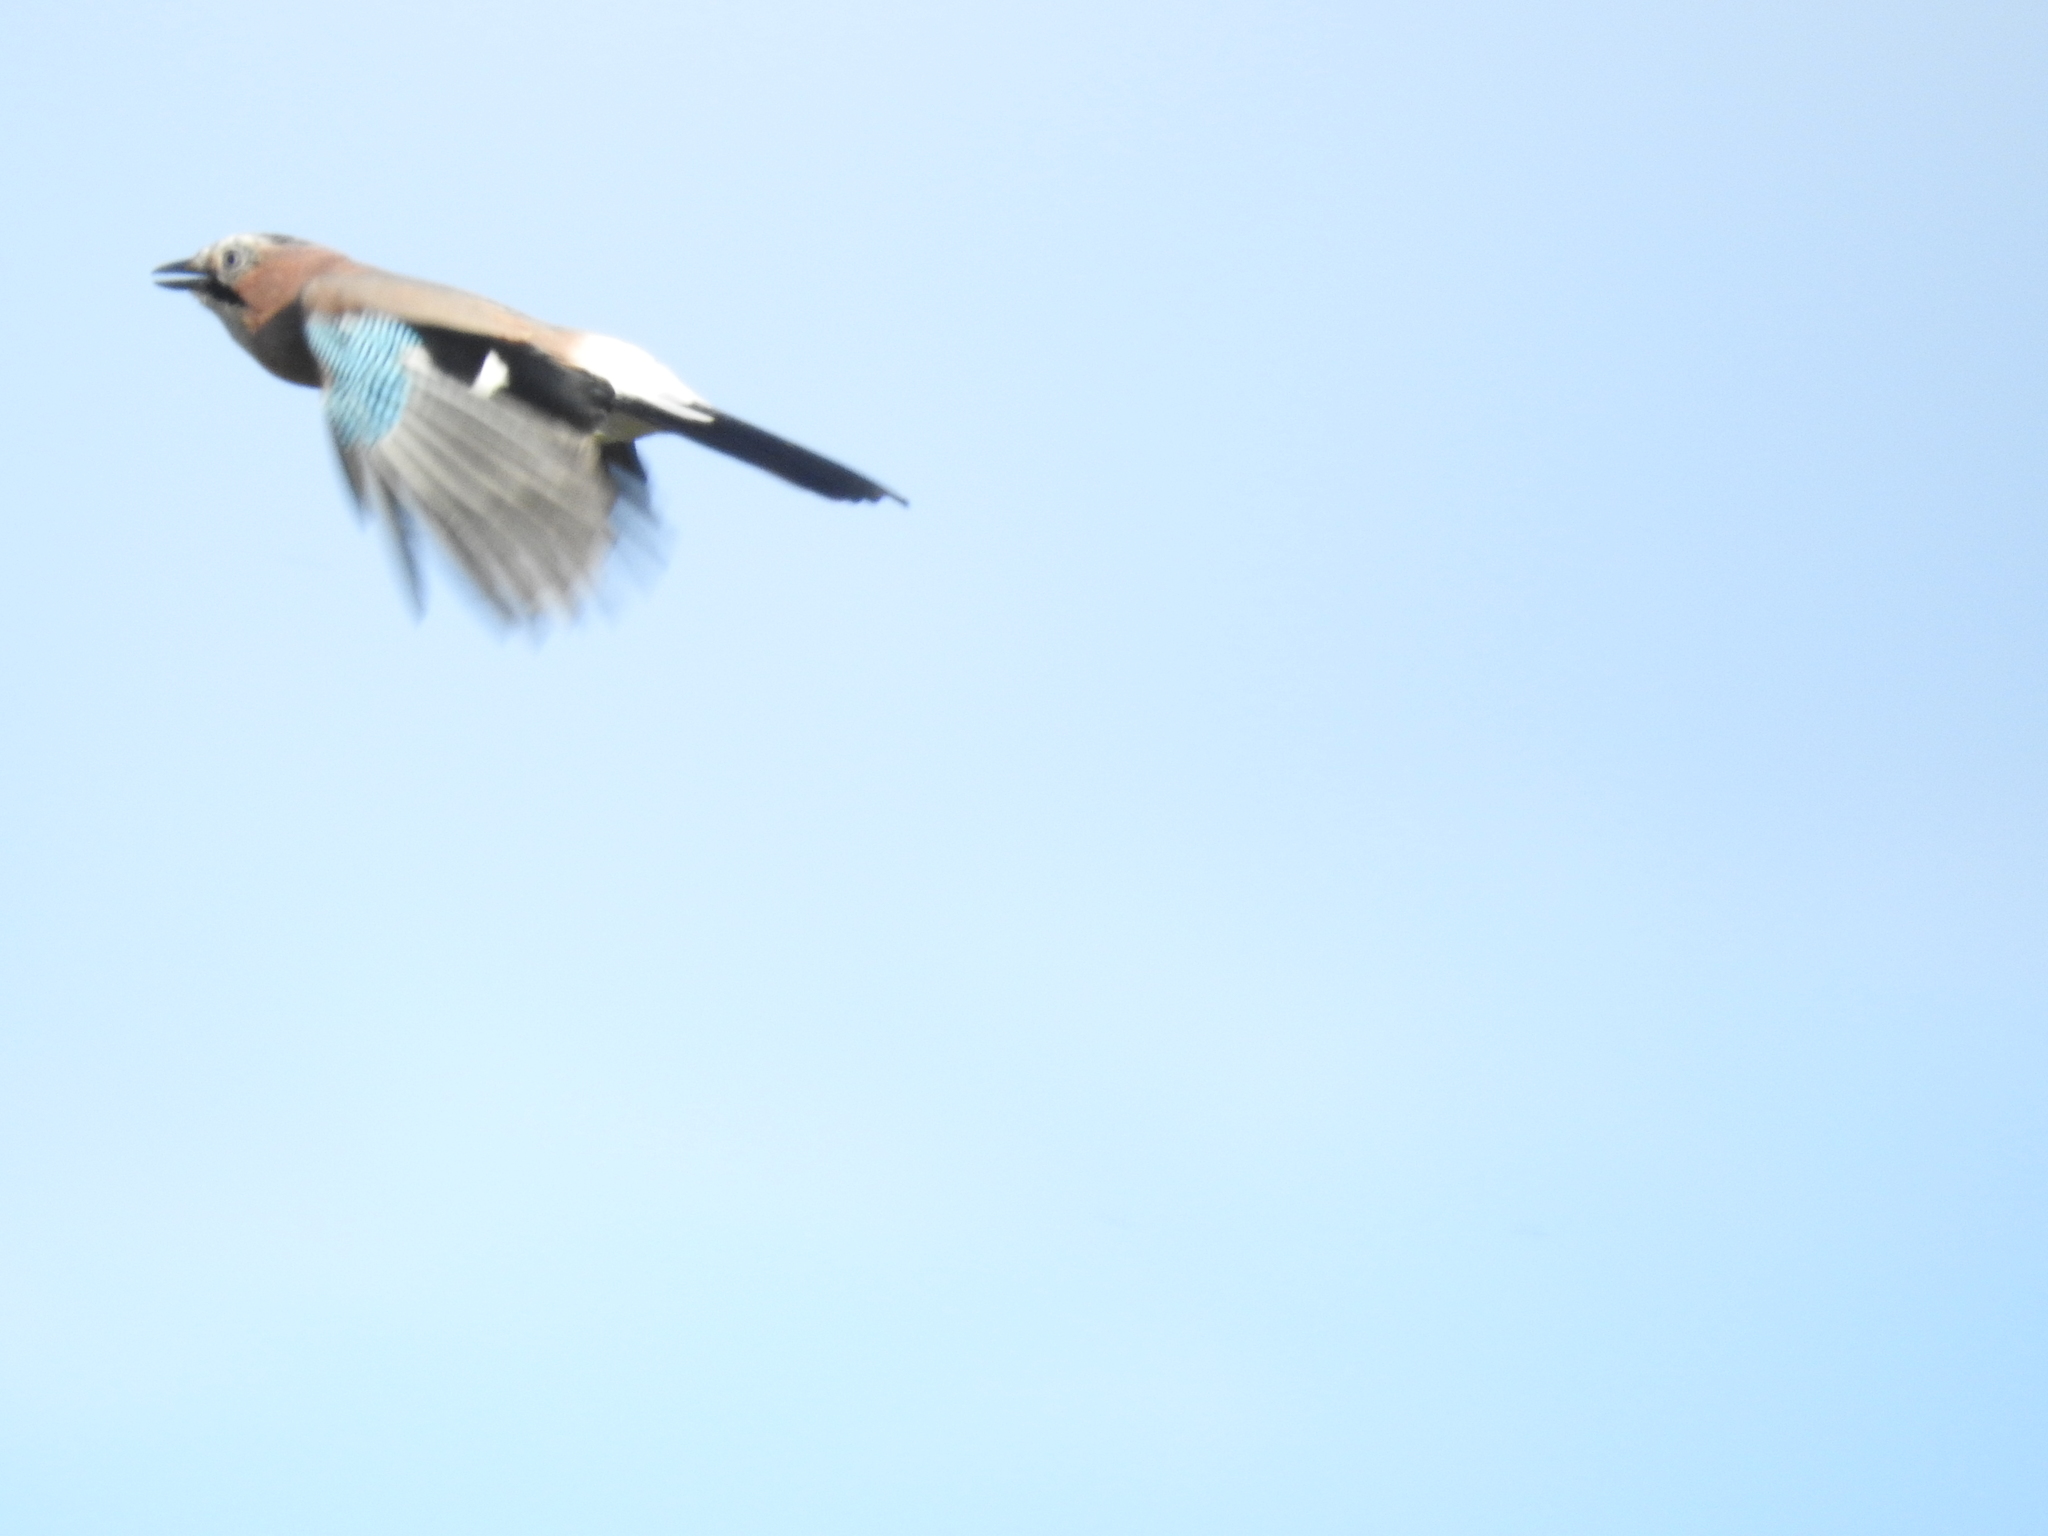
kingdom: Animalia
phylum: Chordata
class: Aves
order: Passeriformes
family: Corvidae
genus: Garrulus
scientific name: Garrulus glandarius
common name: Eurasian jay
